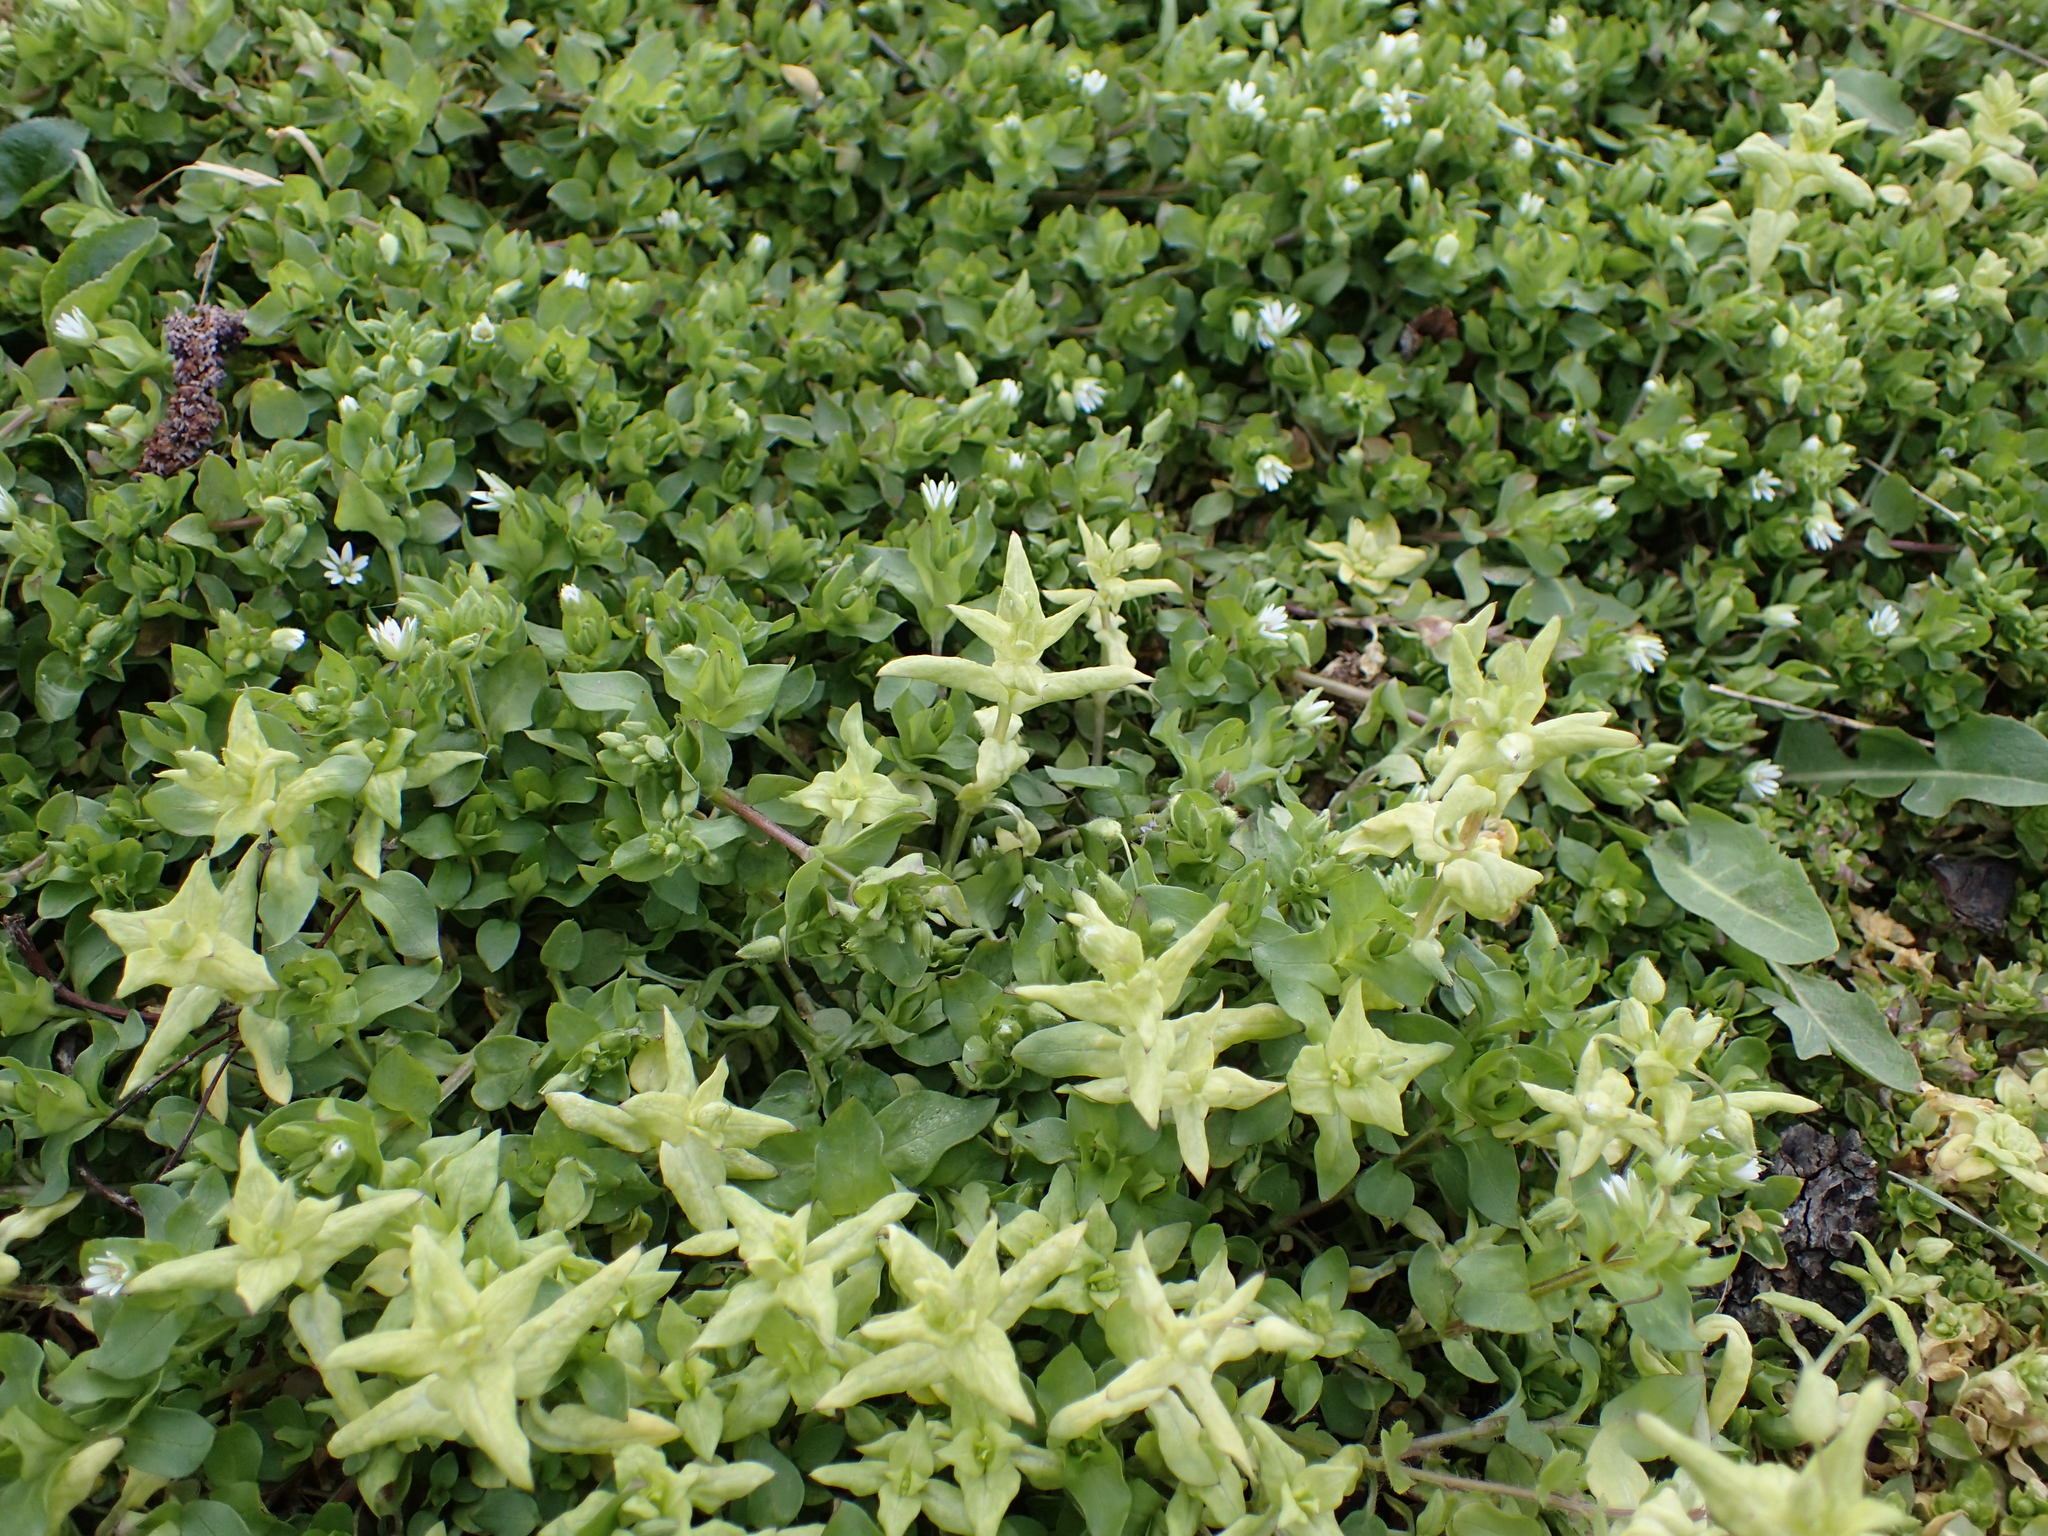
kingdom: Plantae
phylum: Tracheophyta
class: Magnoliopsida
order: Caryophyllales
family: Caryophyllaceae
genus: Stellaria
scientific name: Stellaria
